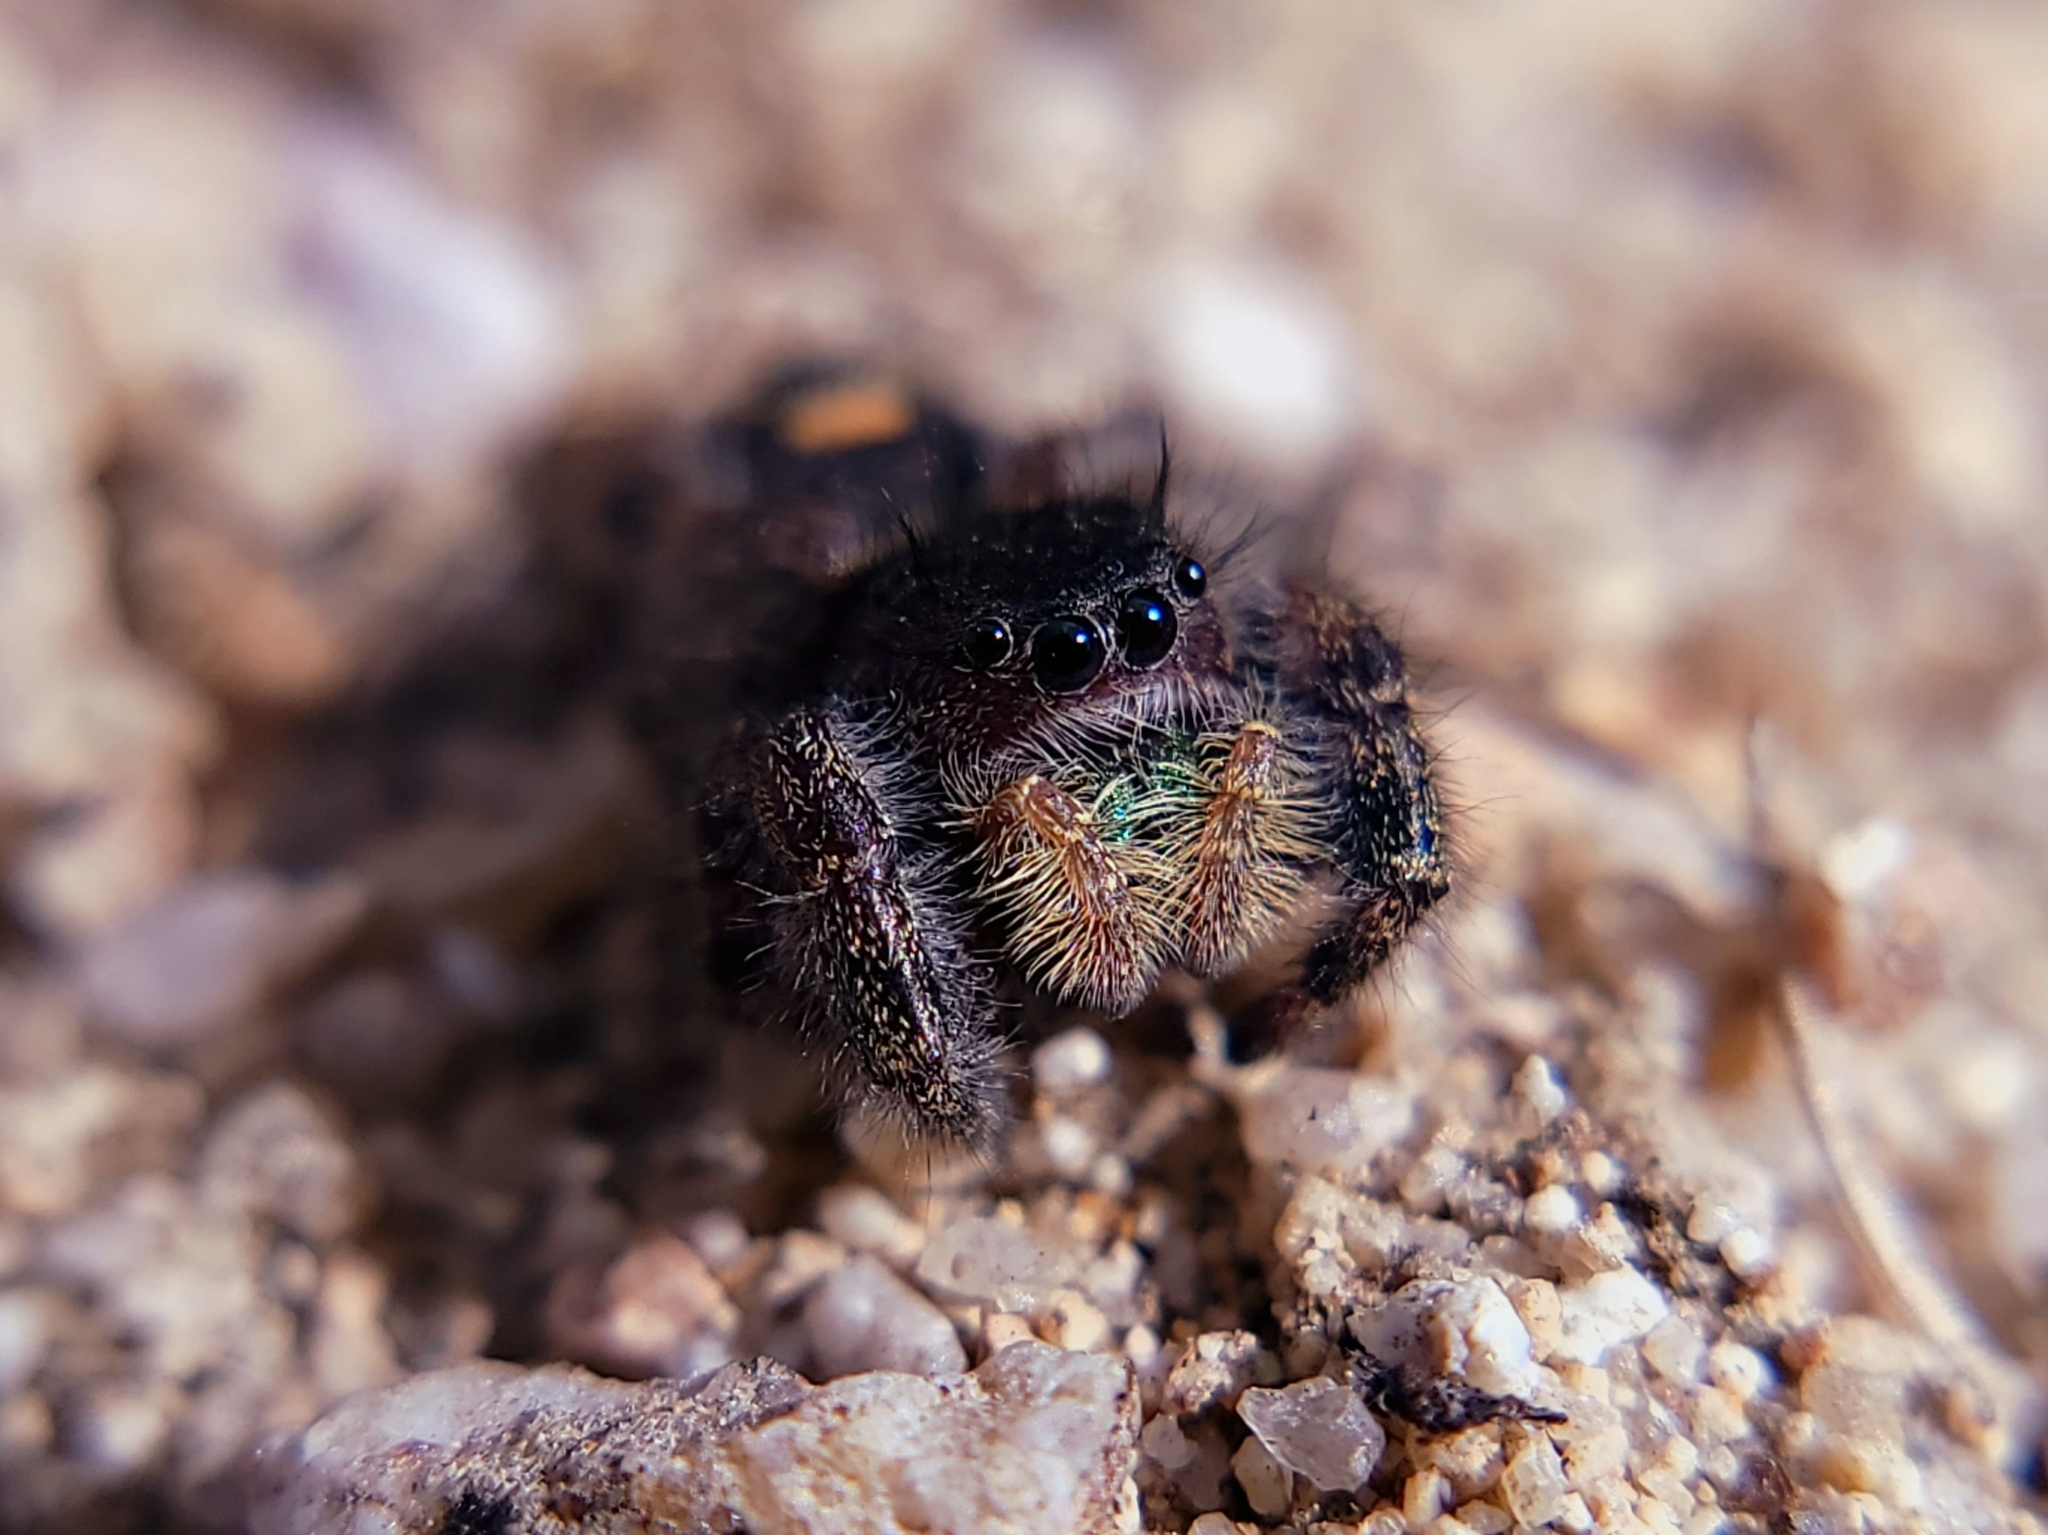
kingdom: Animalia
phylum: Arthropoda
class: Arachnida
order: Araneae
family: Salticidae
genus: Phidippus
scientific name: Phidippus audax
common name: Bold jumper
